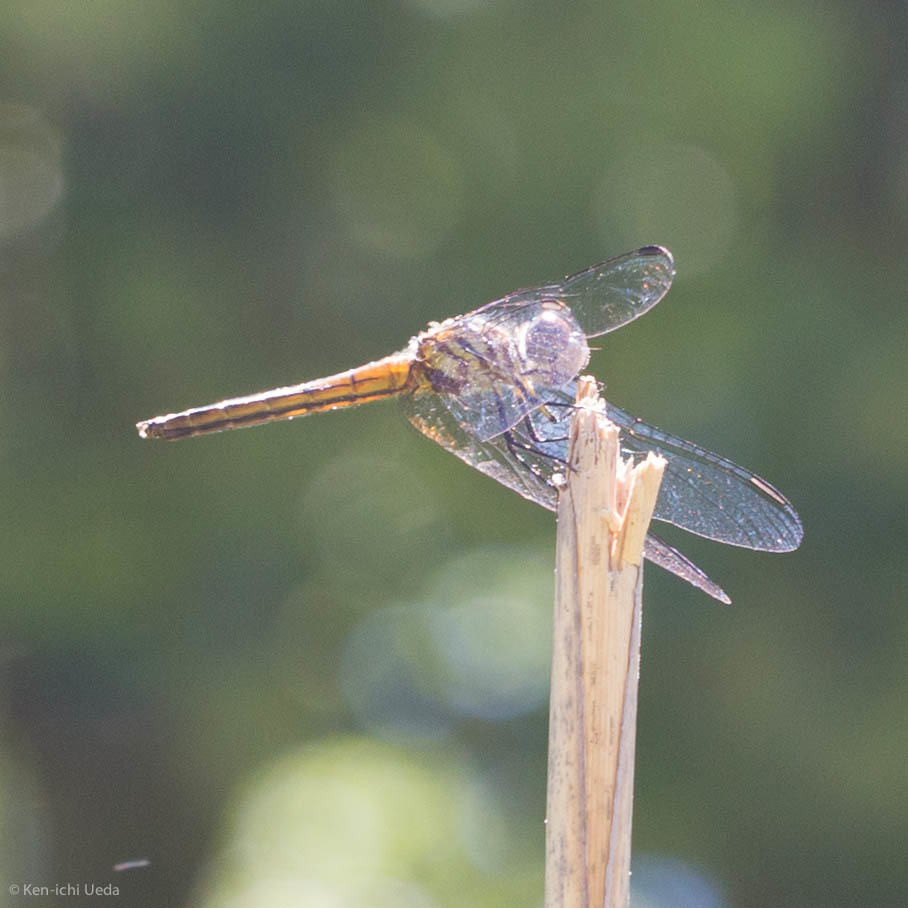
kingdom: Animalia
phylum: Arthropoda
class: Insecta
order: Odonata
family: Libellulidae
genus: Pachydiplax
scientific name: Pachydiplax longipennis
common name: Blue dasher
